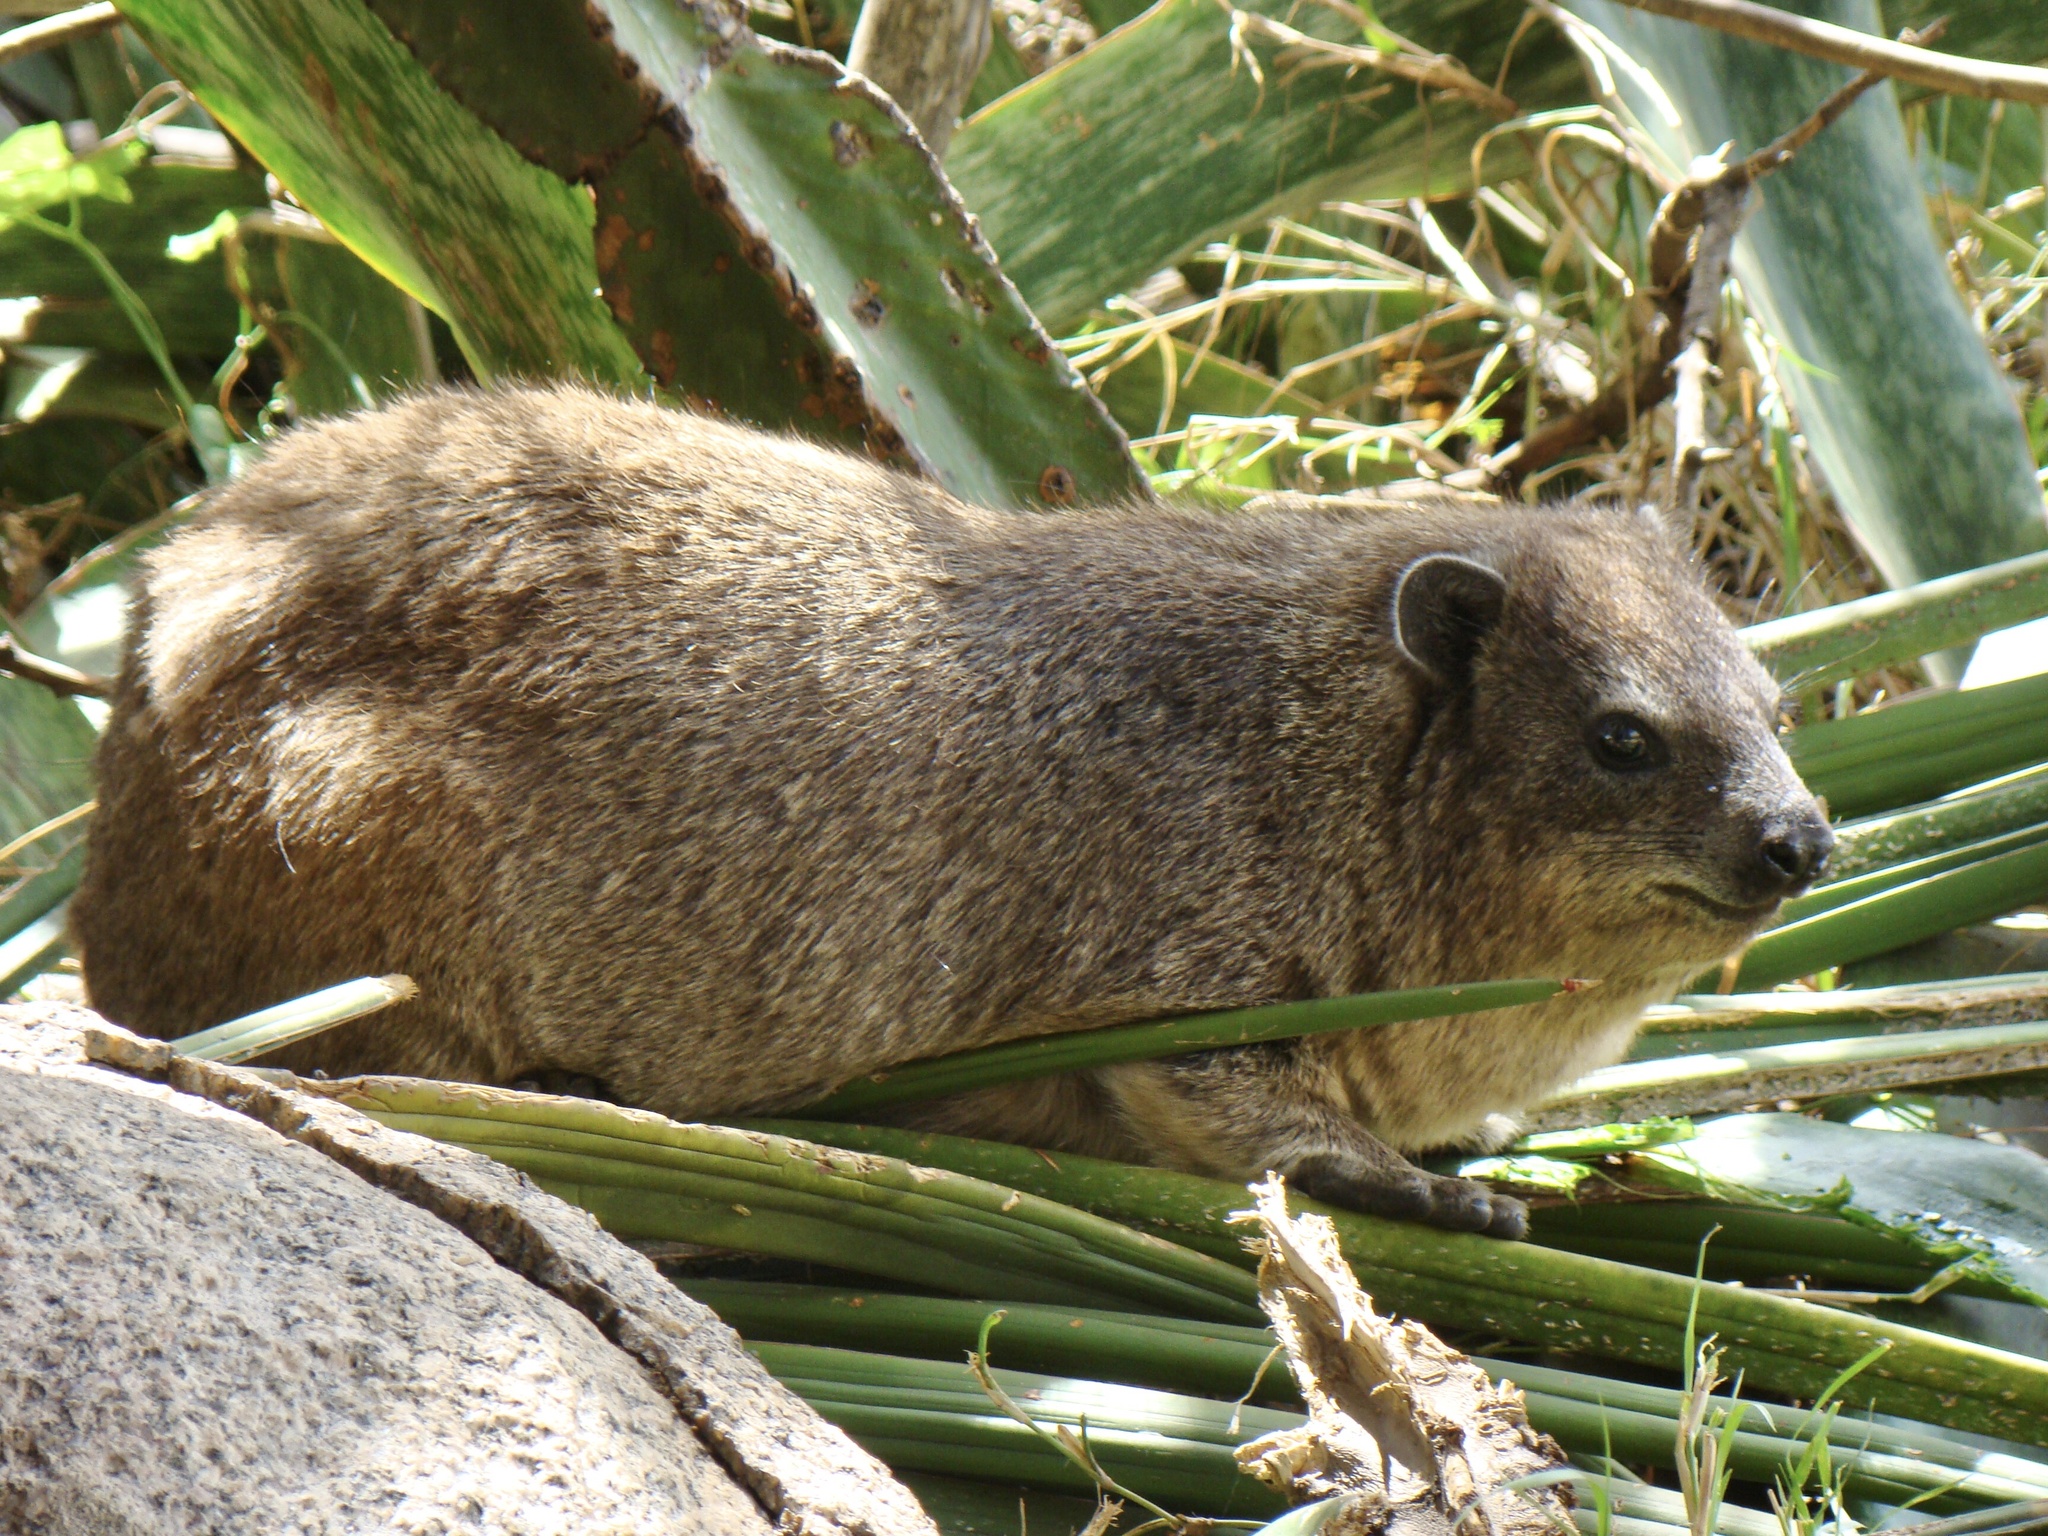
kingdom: Animalia
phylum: Chordata
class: Mammalia
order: Hyracoidea
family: Procaviidae
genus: Procavia
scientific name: Procavia capensis
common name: Rock hyrax
